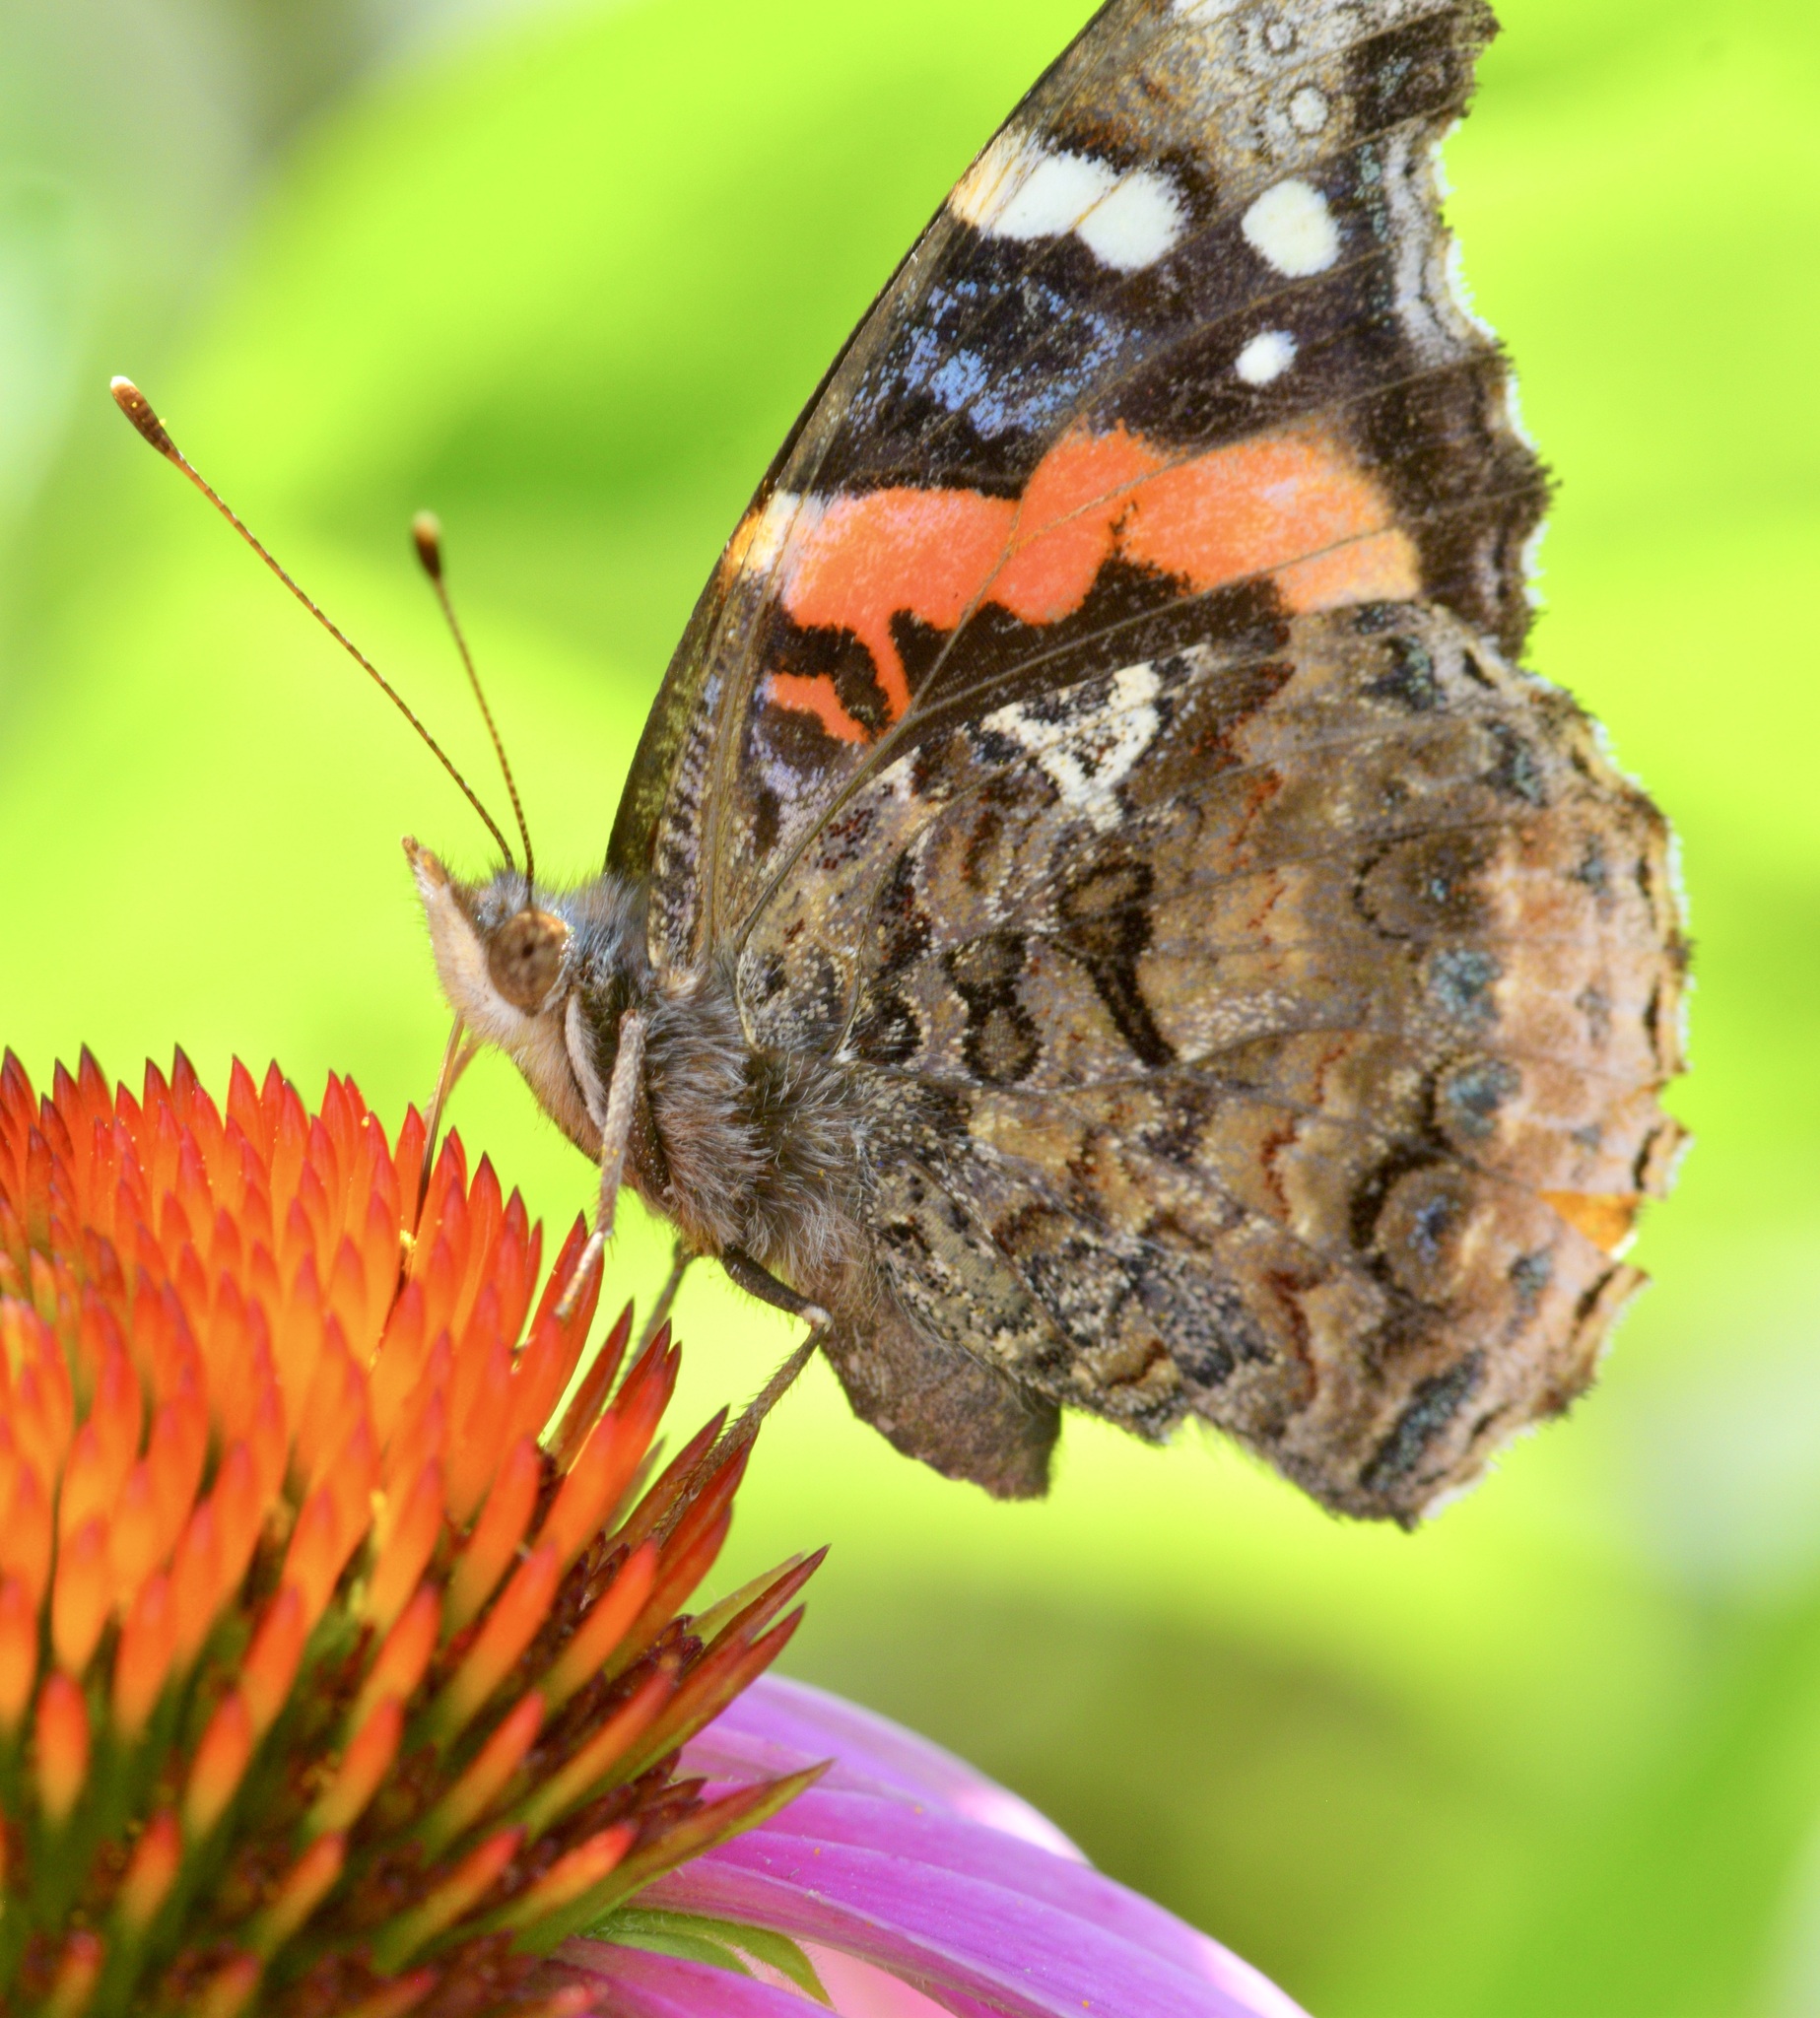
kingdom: Animalia
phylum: Arthropoda
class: Insecta
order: Lepidoptera
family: Nymphalidae
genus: Vanessa
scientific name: Vanessa atalanta
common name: Red admiral
